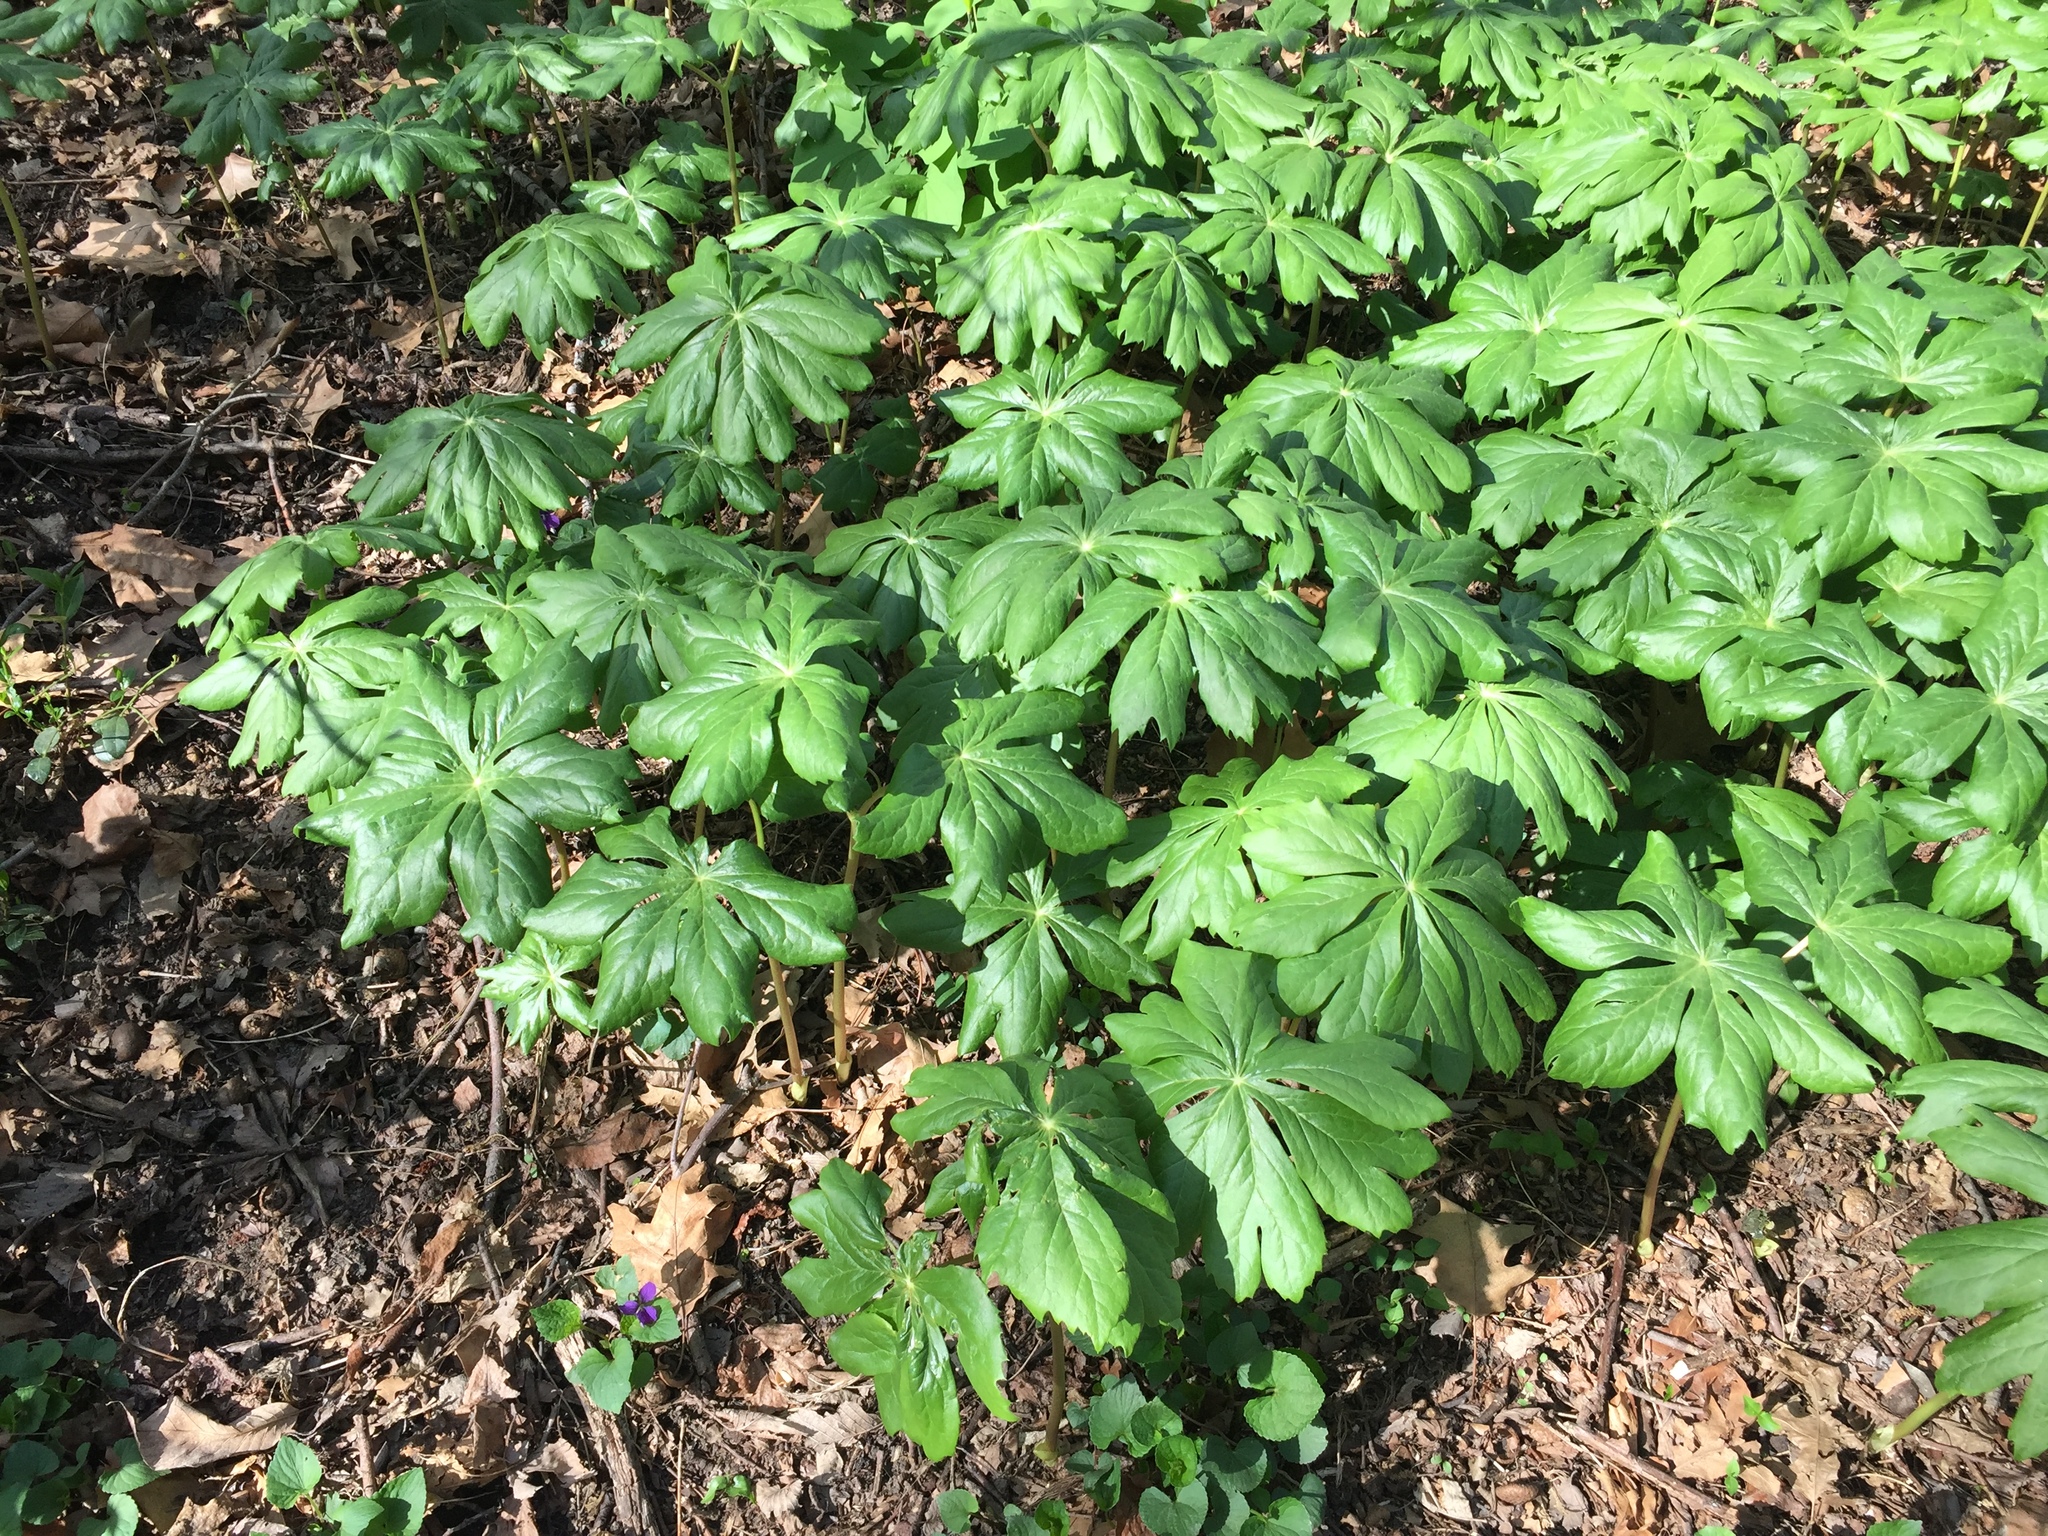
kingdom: Plantae
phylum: Tracheophyta
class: Magnoliopsida
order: Ranunculales
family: Berberidaceae
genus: Podophyllum
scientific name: Podophyllum peltatum
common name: Wild mandrake
